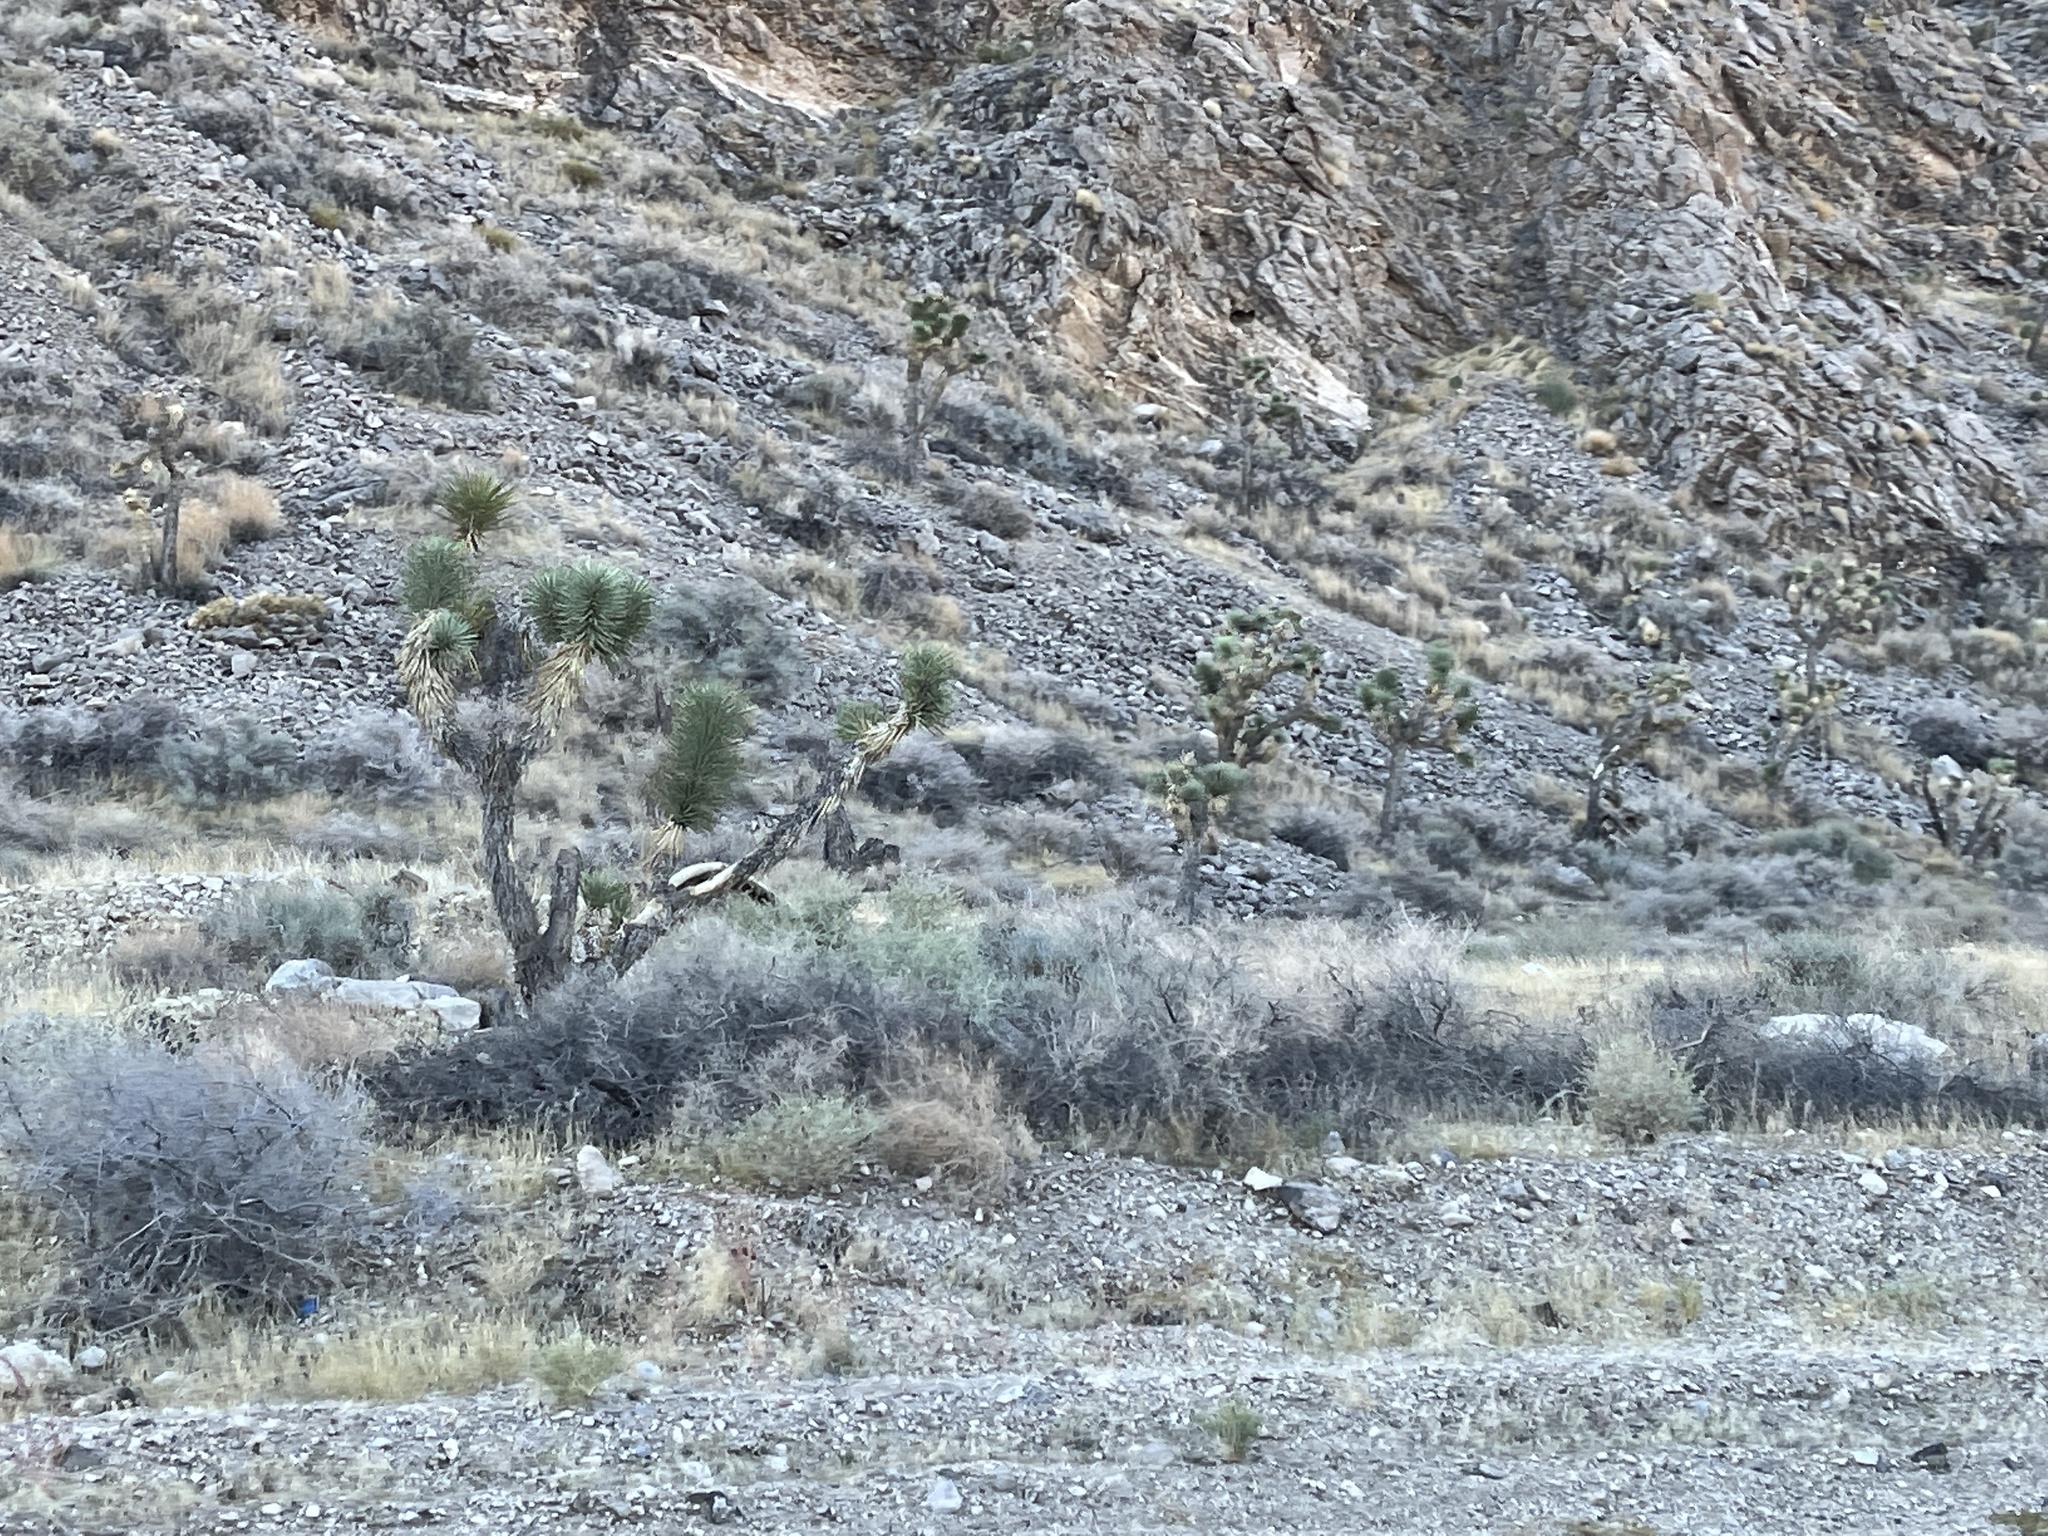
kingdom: Plantae
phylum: Tracheophyta
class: Liliopsida
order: Asparagales
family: Asparagaceae
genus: Yucca
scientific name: Yucca brevifolia
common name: Joshua tree
